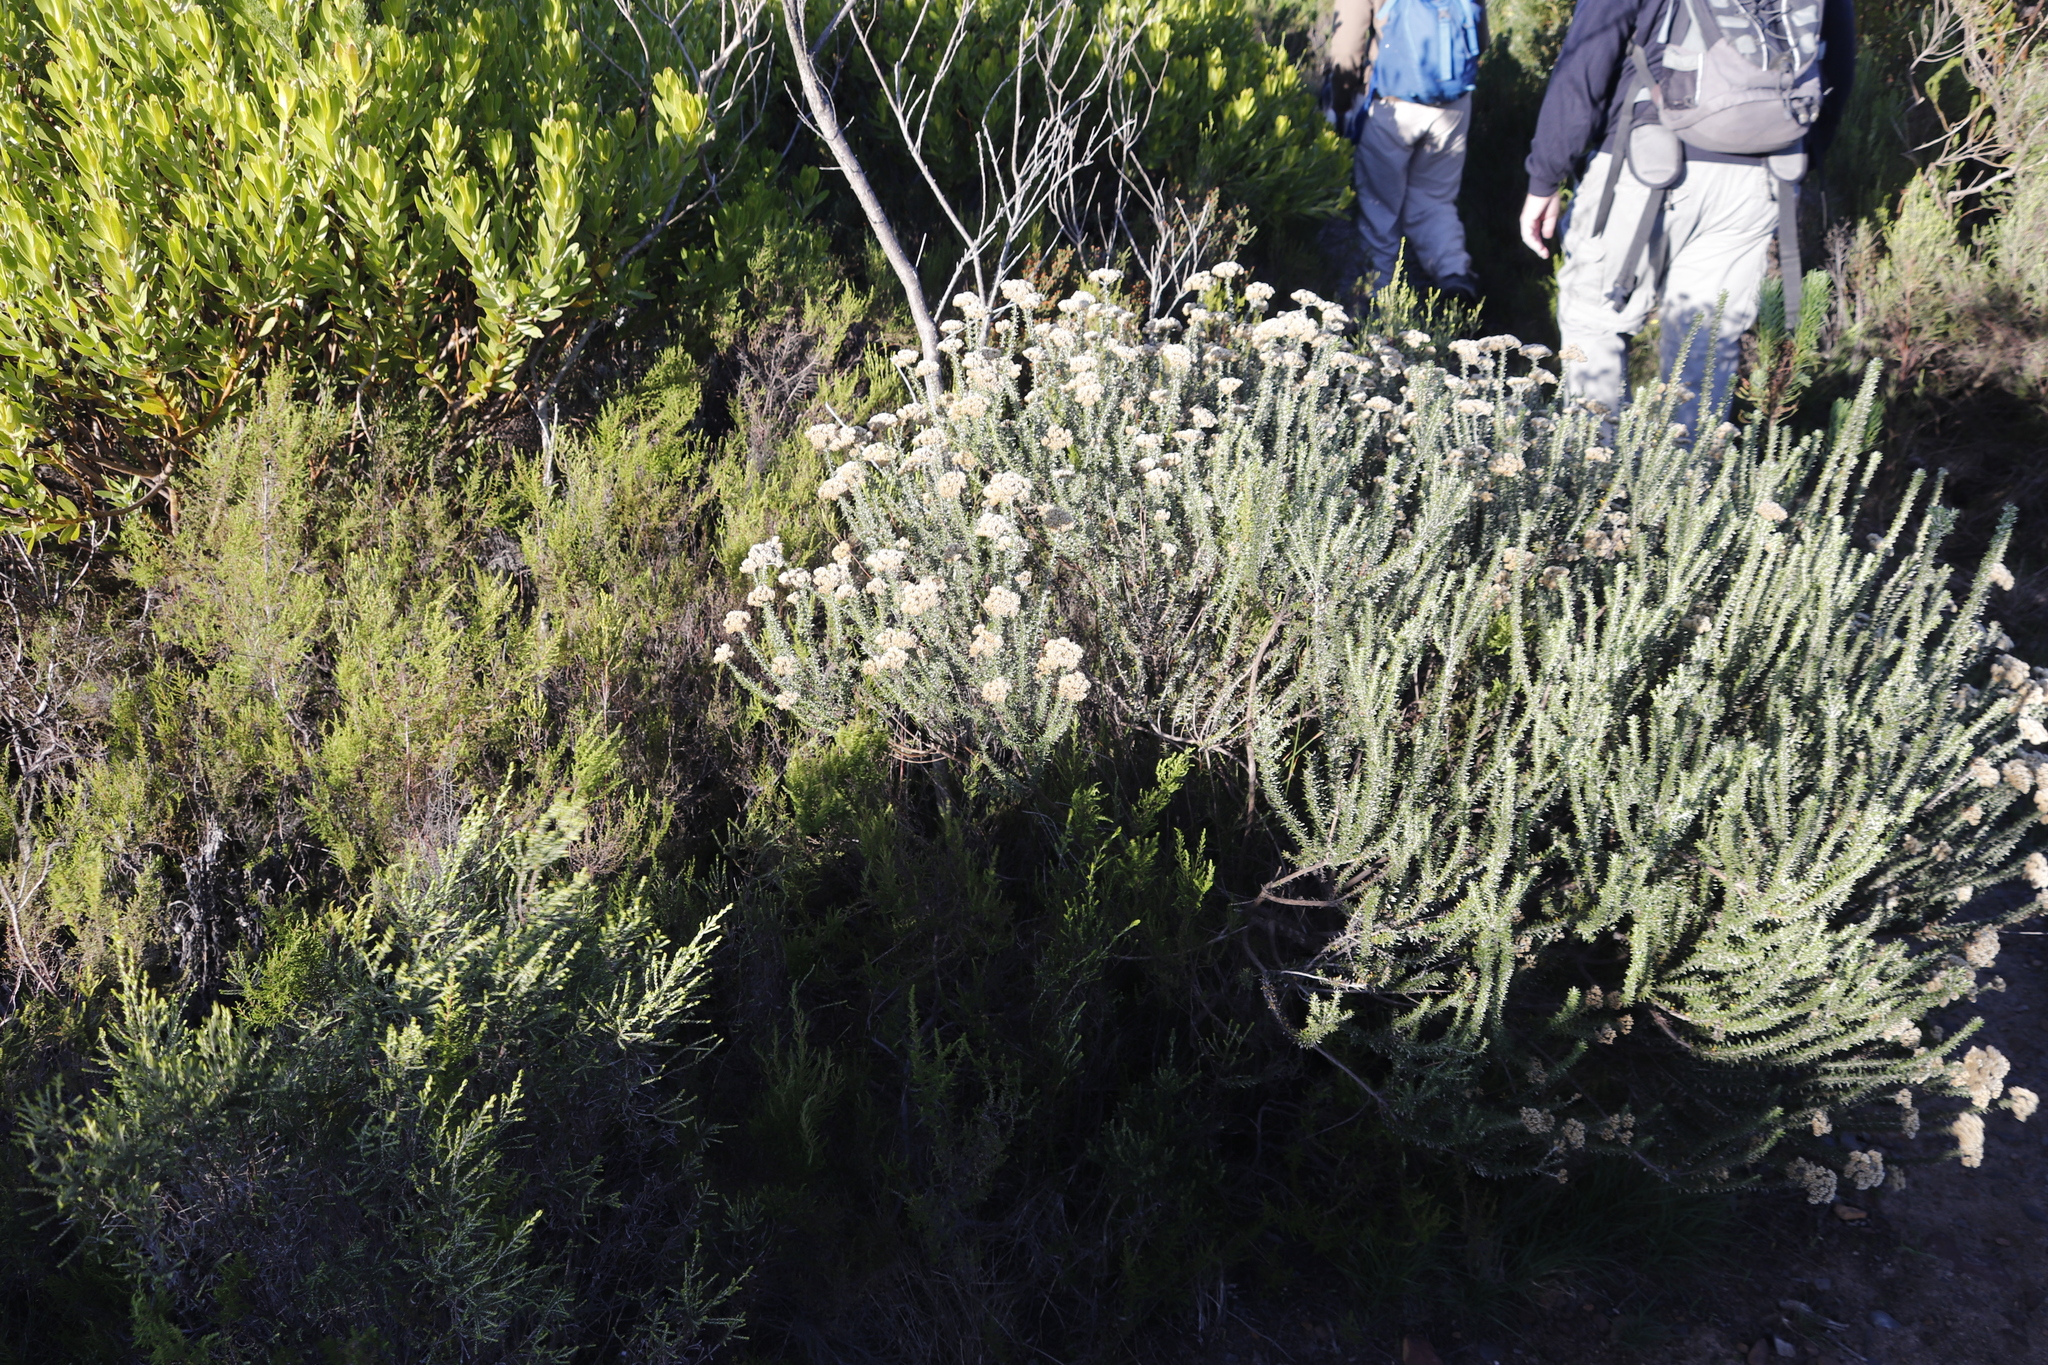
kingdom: Plantae
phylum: Tracheophyta
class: Magnoliopsida
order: Asterales
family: Asteraceae
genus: Metalasia
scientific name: Metalasia densa
